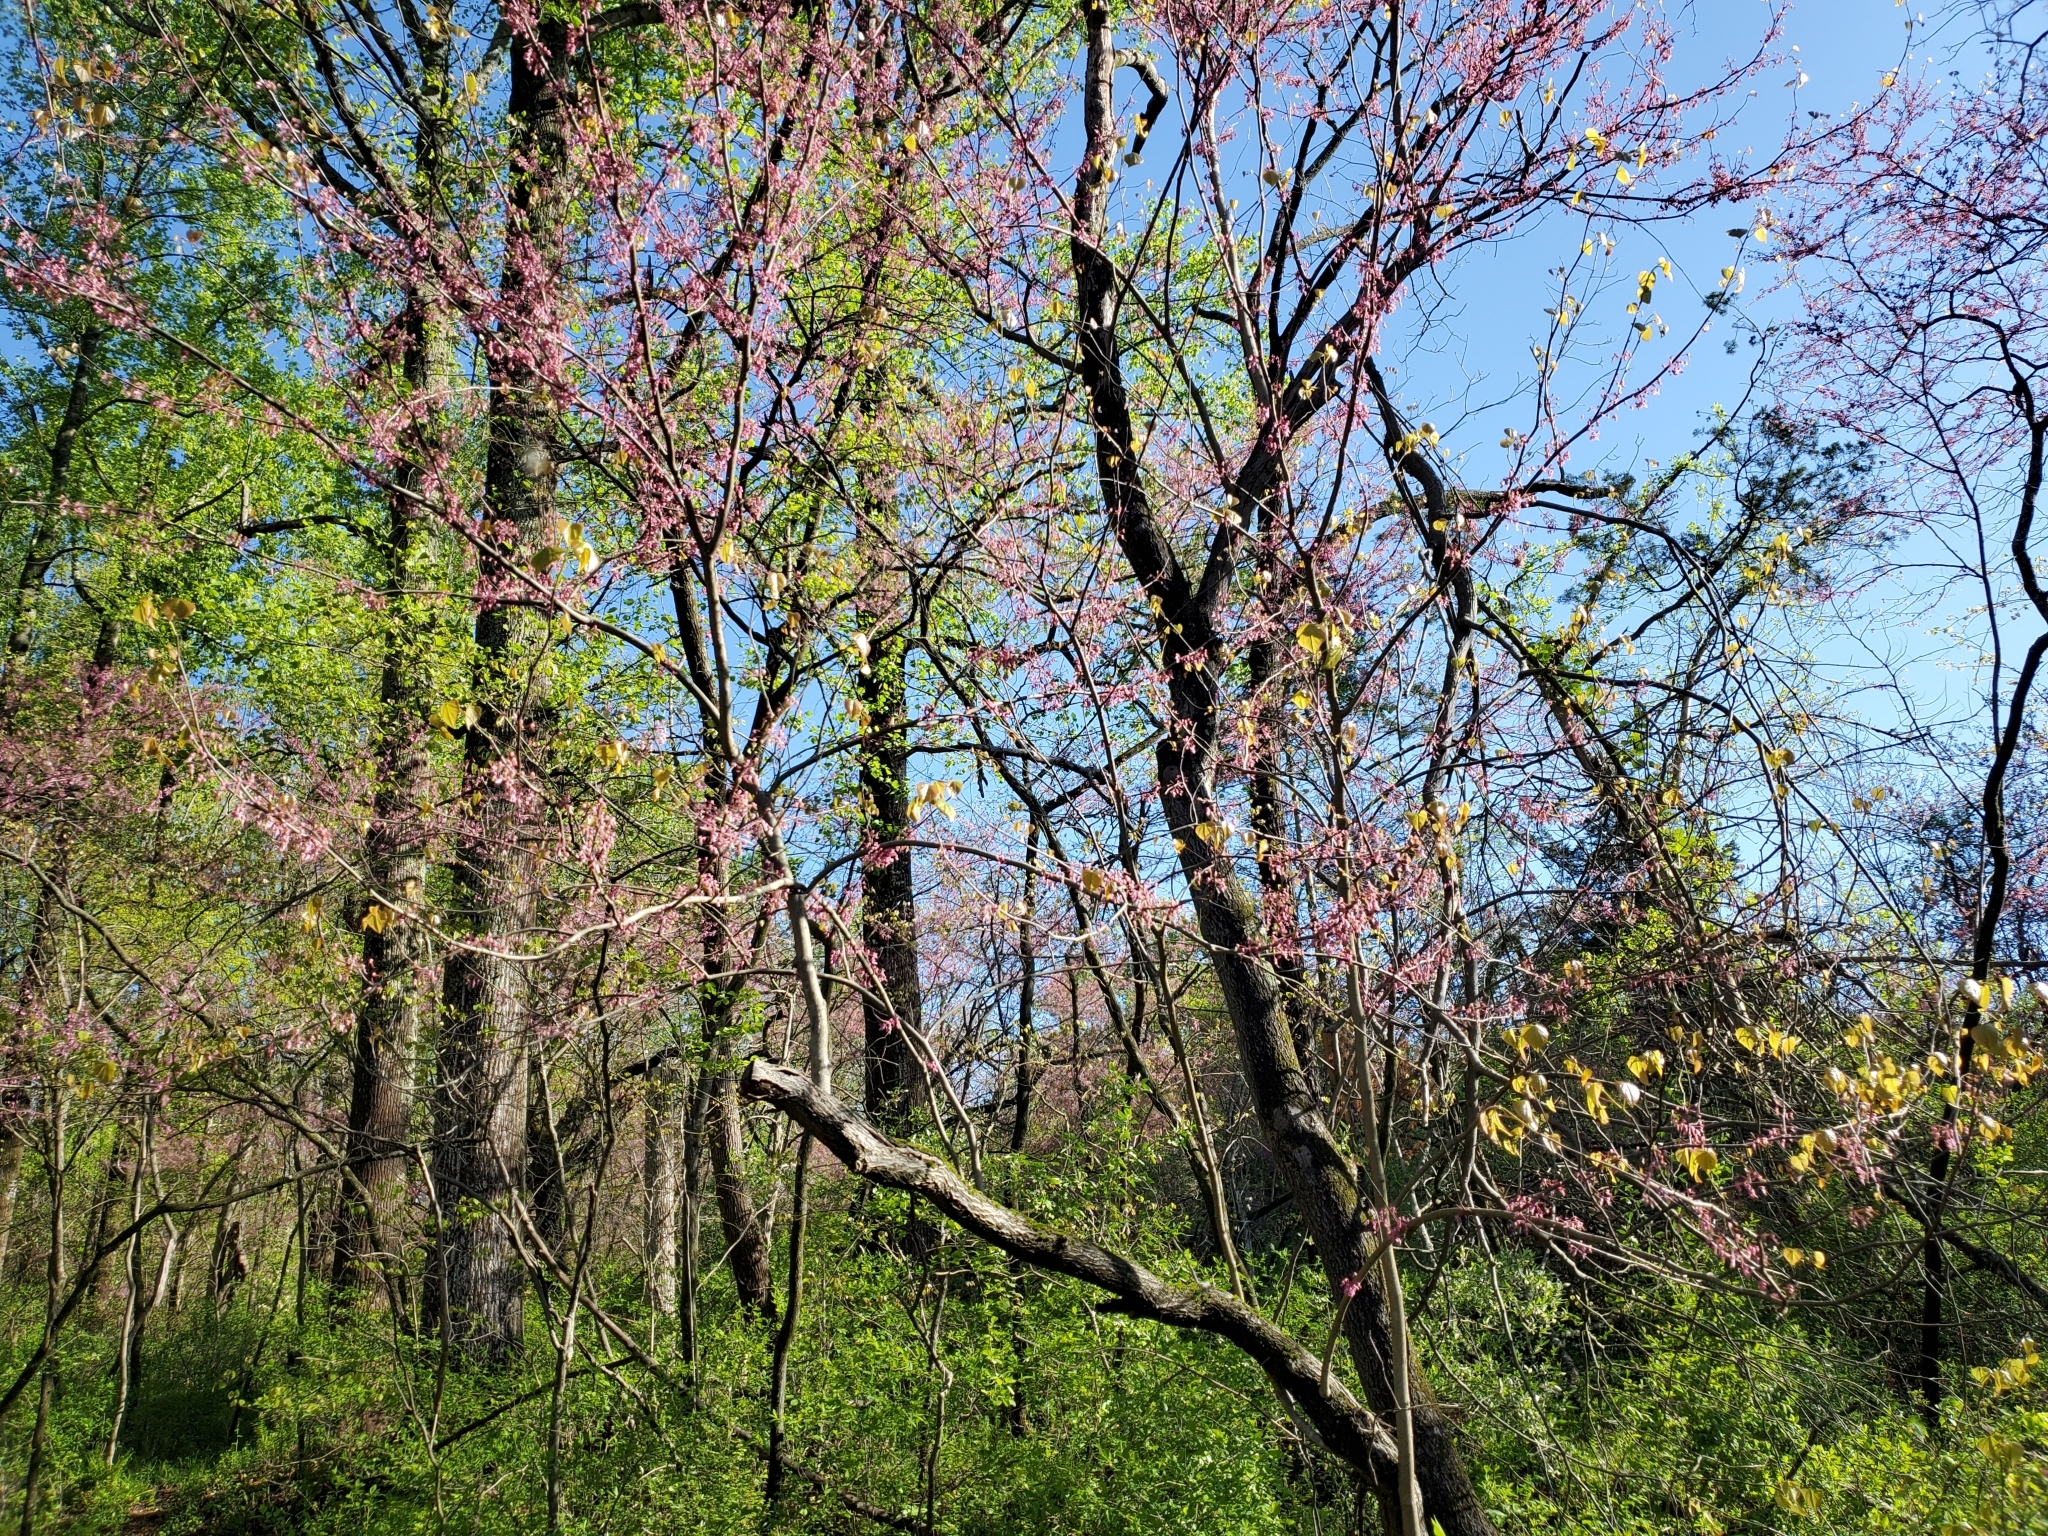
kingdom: Plantae
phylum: Tracheophyta
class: Magnoliopsida
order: Fabales
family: Fabaceae
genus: Cercis
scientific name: Cercis canadensis
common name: Eastern redbud
